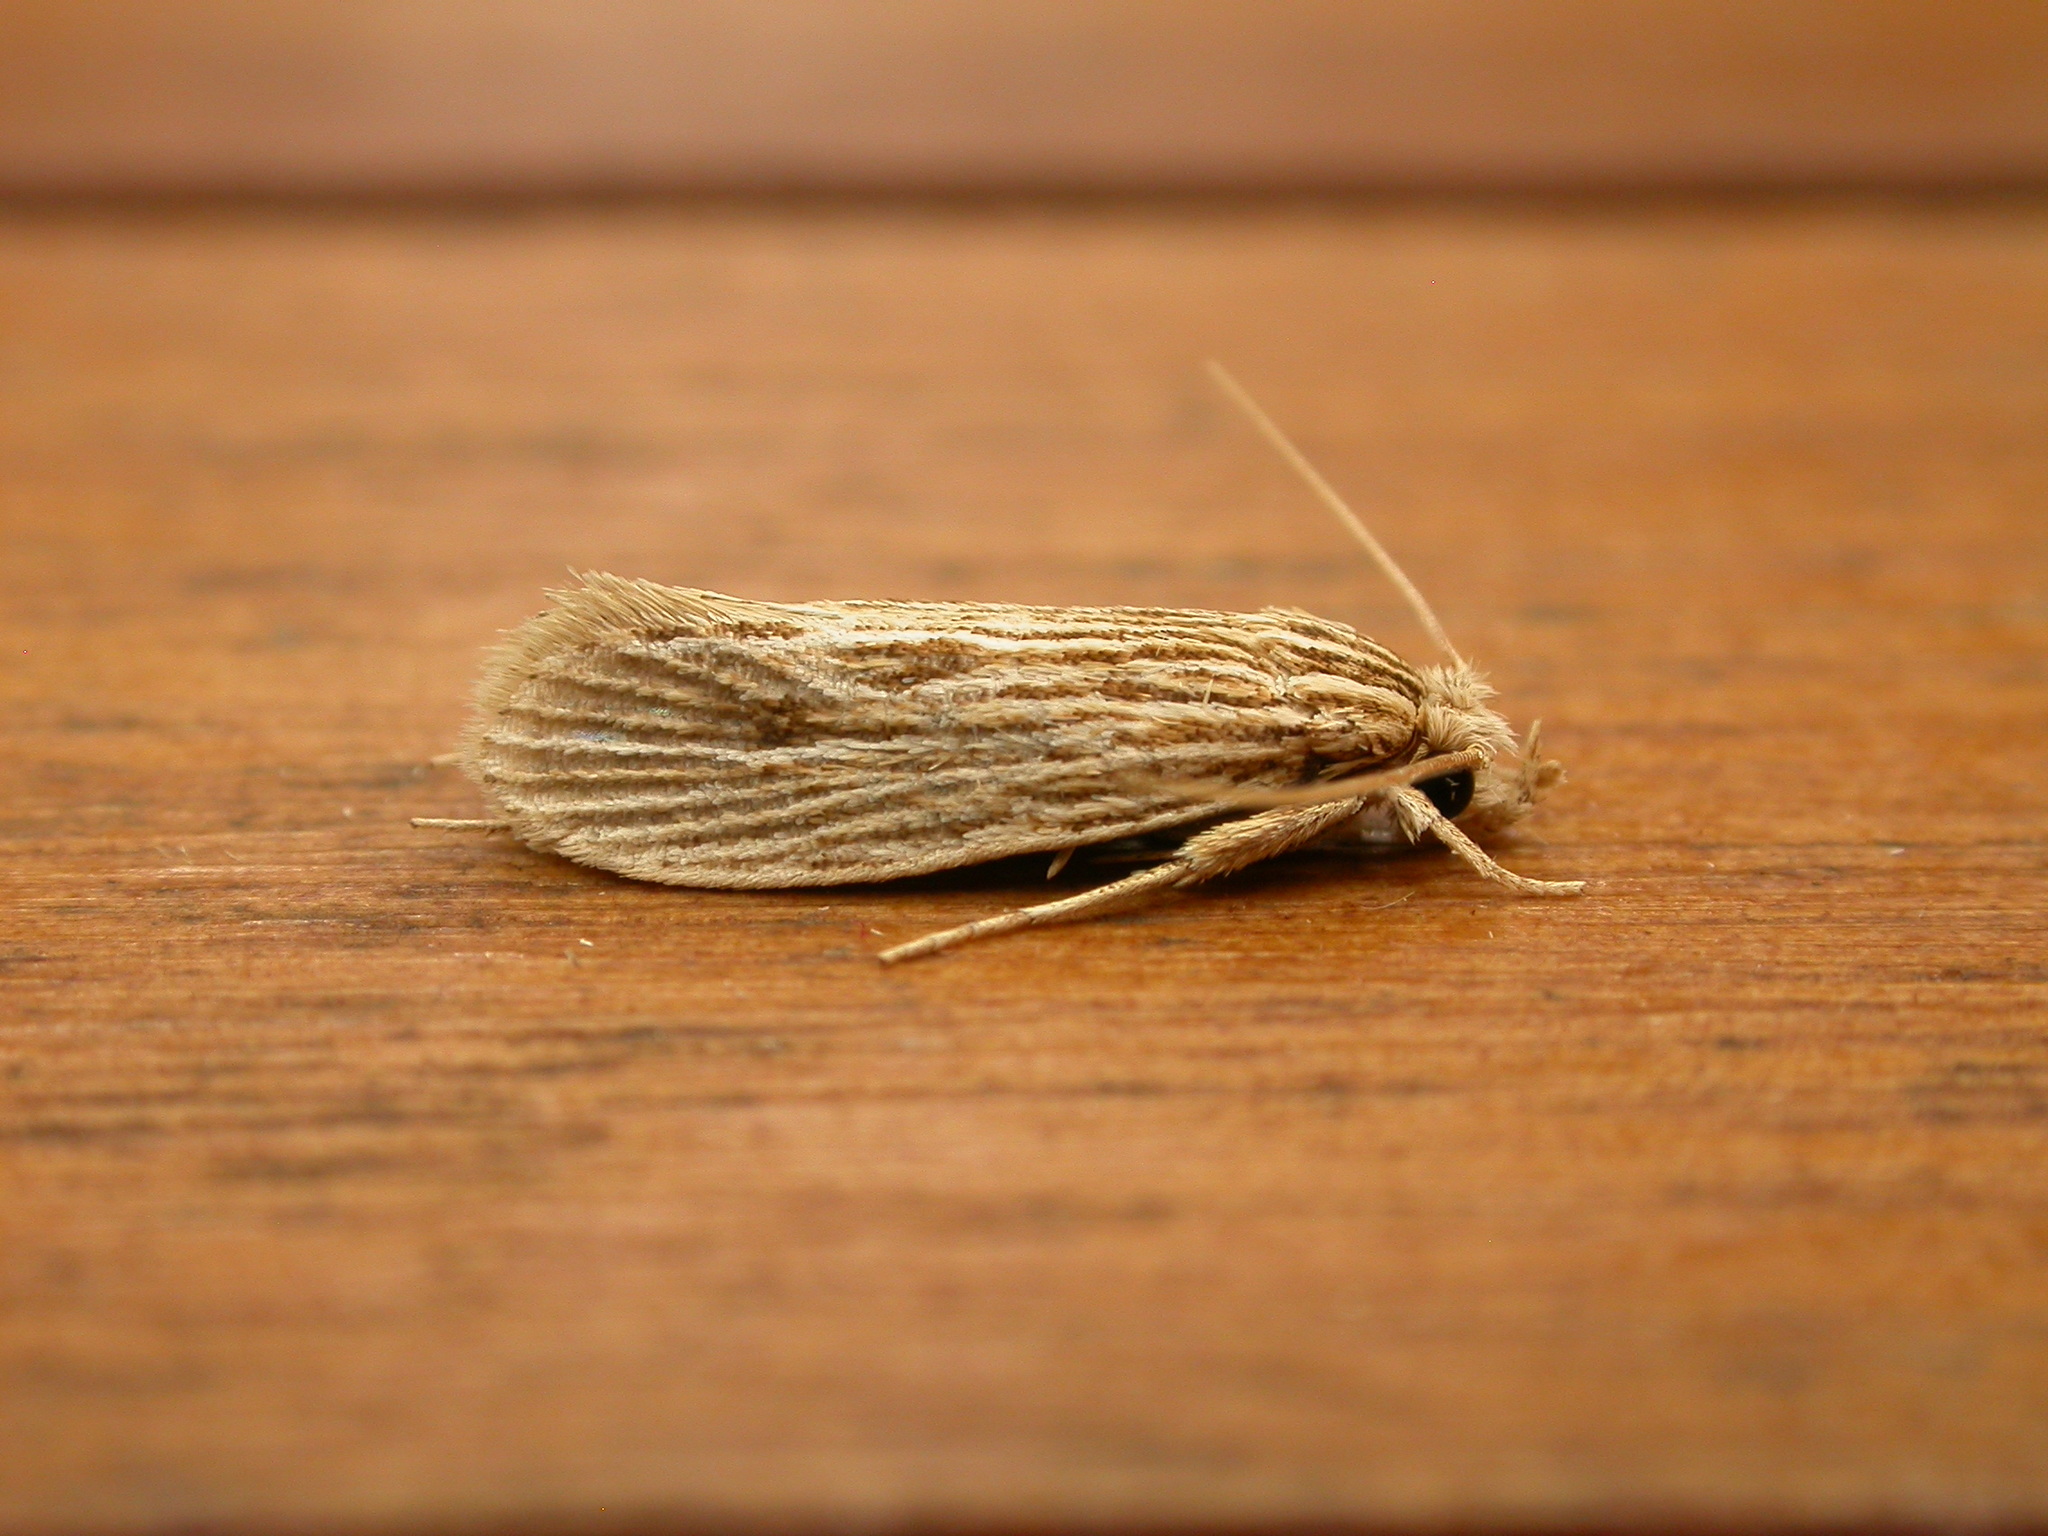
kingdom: Animalia
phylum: Arthropoda
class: Insecta
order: Lepidoptera
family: Tineidae
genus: Moerarchis
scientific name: Moerarchis hypomacra
